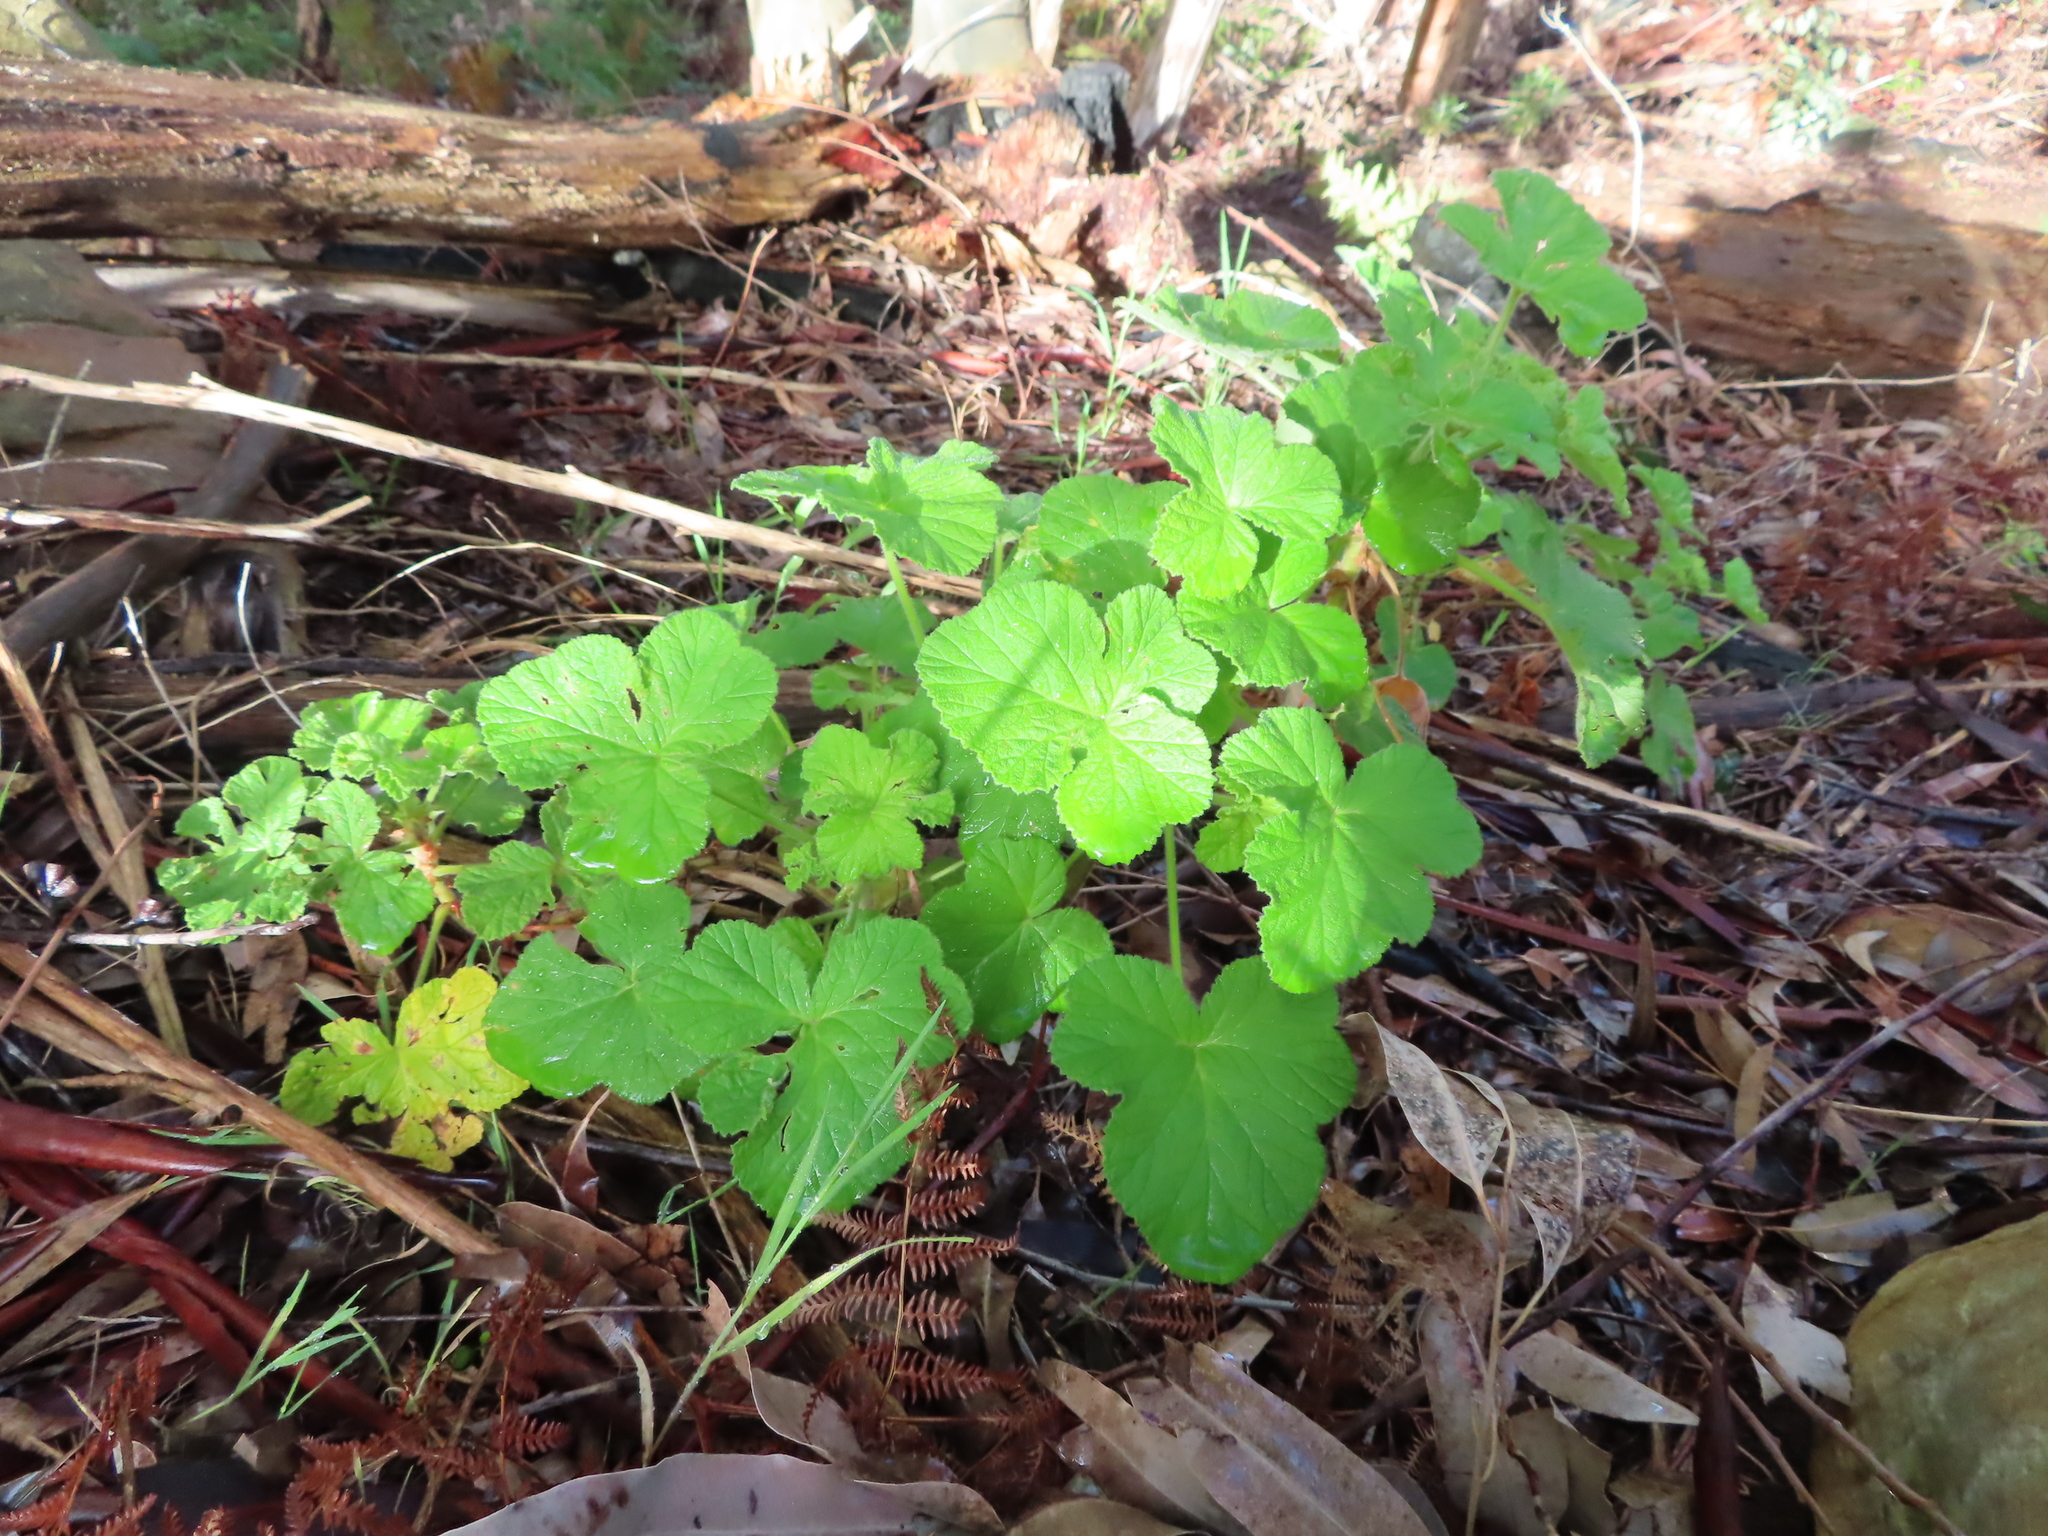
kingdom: Plantae
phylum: Tracheophyta
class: Magnoliopsida
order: Geraniales
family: Geraniaceae
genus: Pelargonium
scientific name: Pelargonium vitifolium
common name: Grapeleaf geranium
